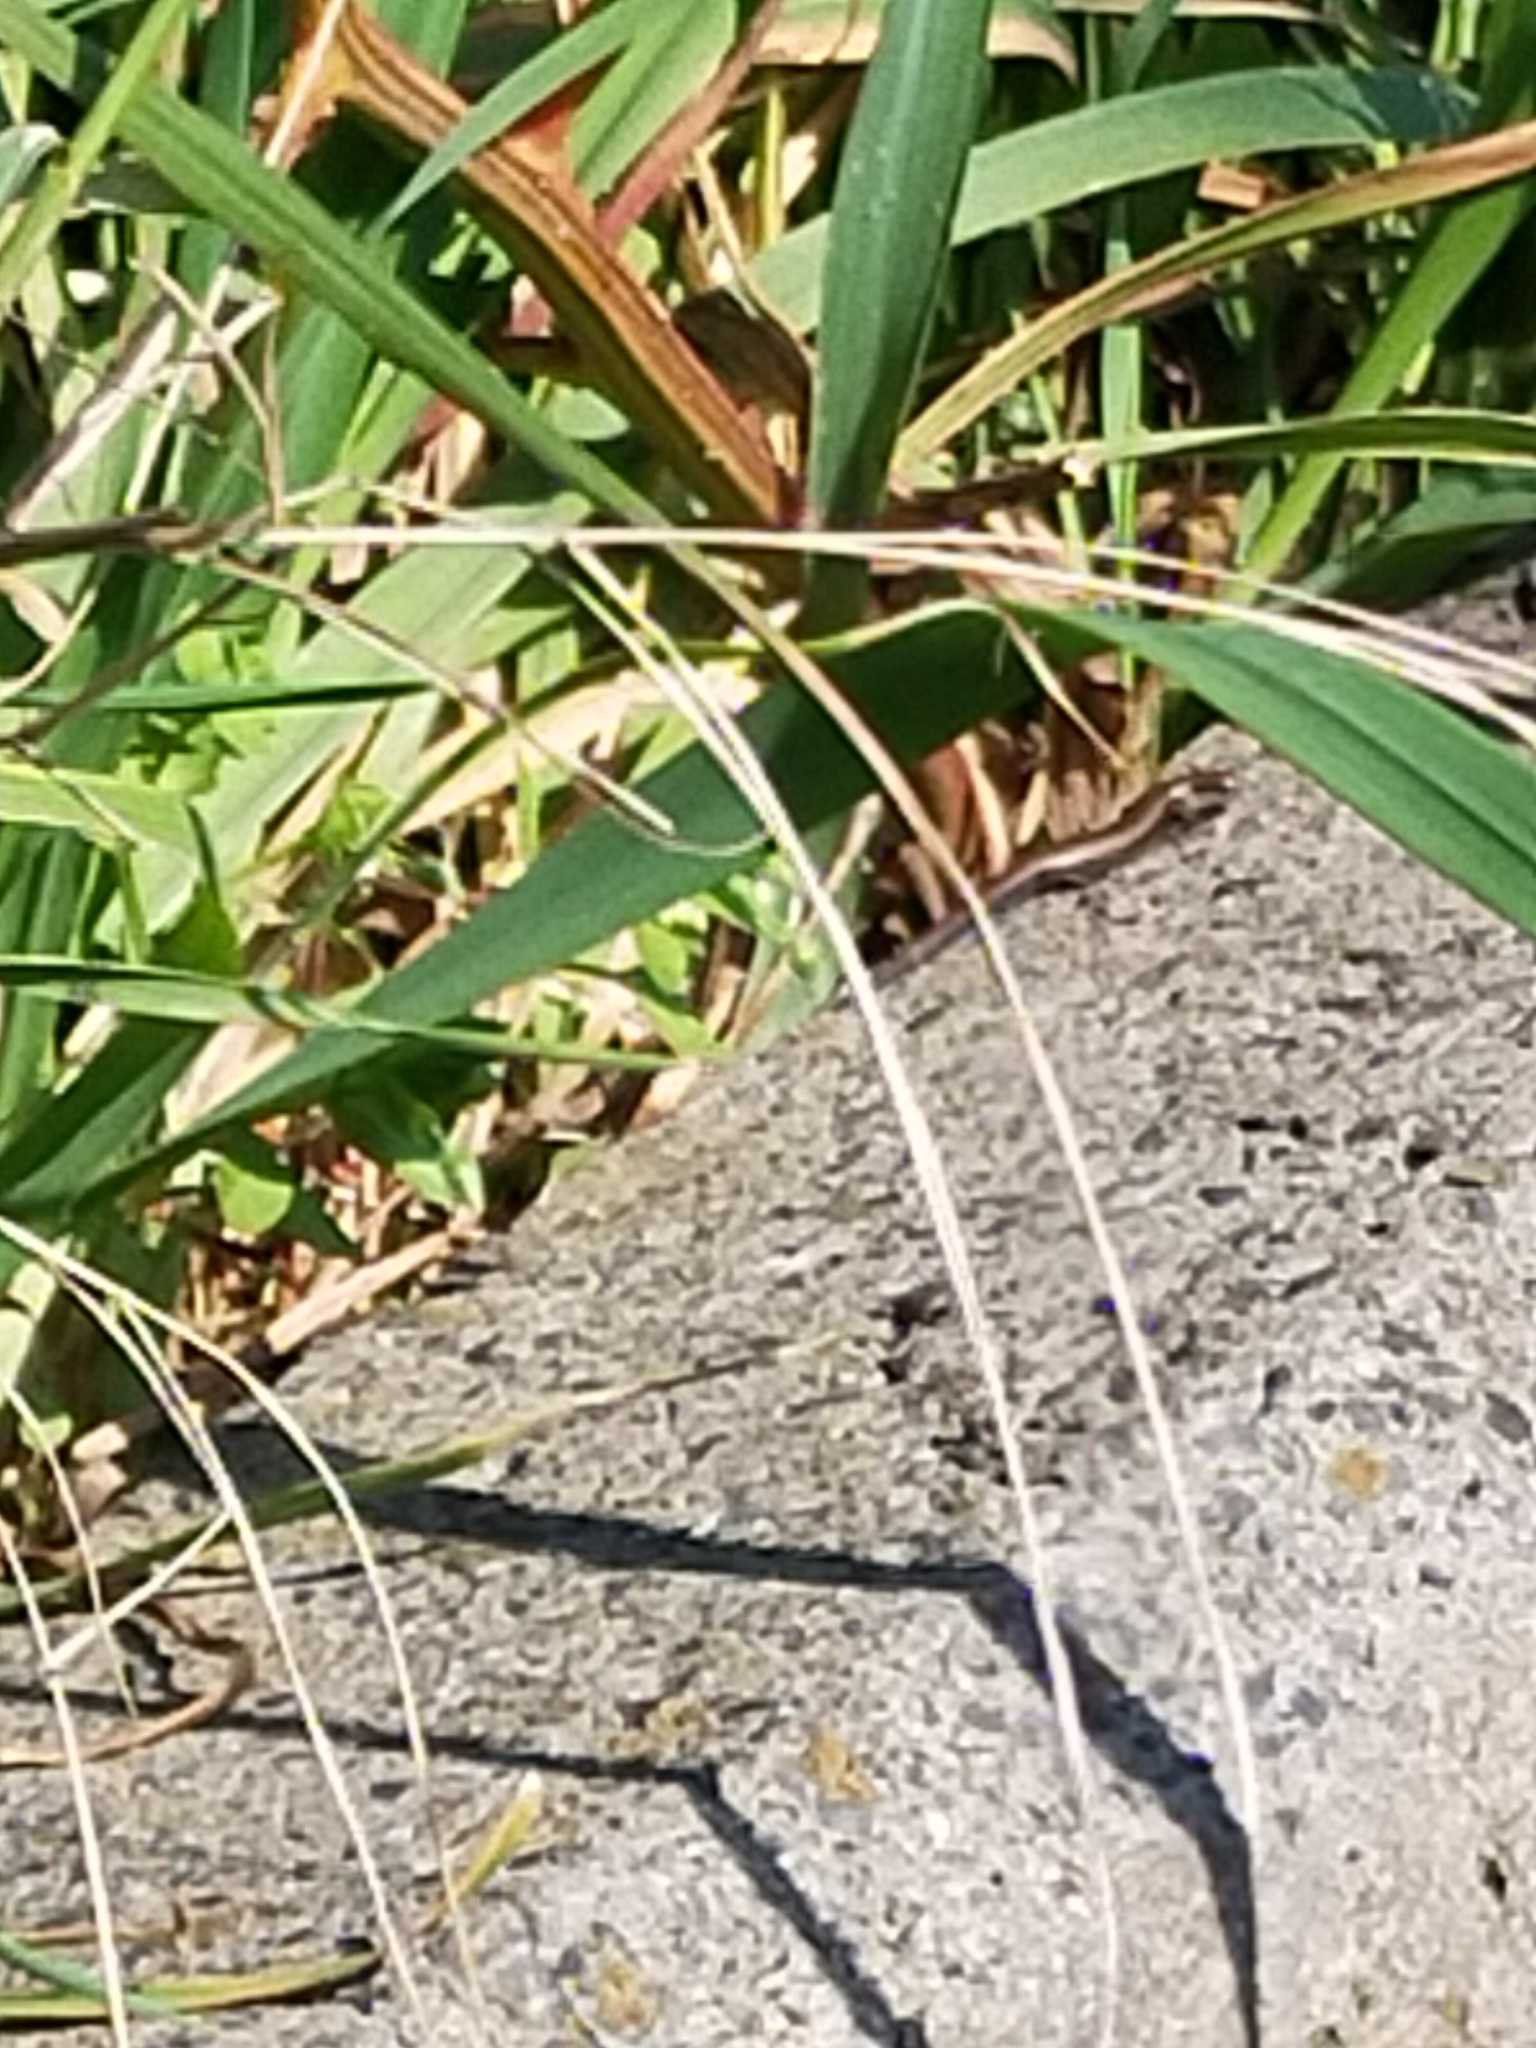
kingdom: Animalia
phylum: Chordata
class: Squamata
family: Scincidae
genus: Ablepharus
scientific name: Ablepharus kitaibelii
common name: Juniper skink
